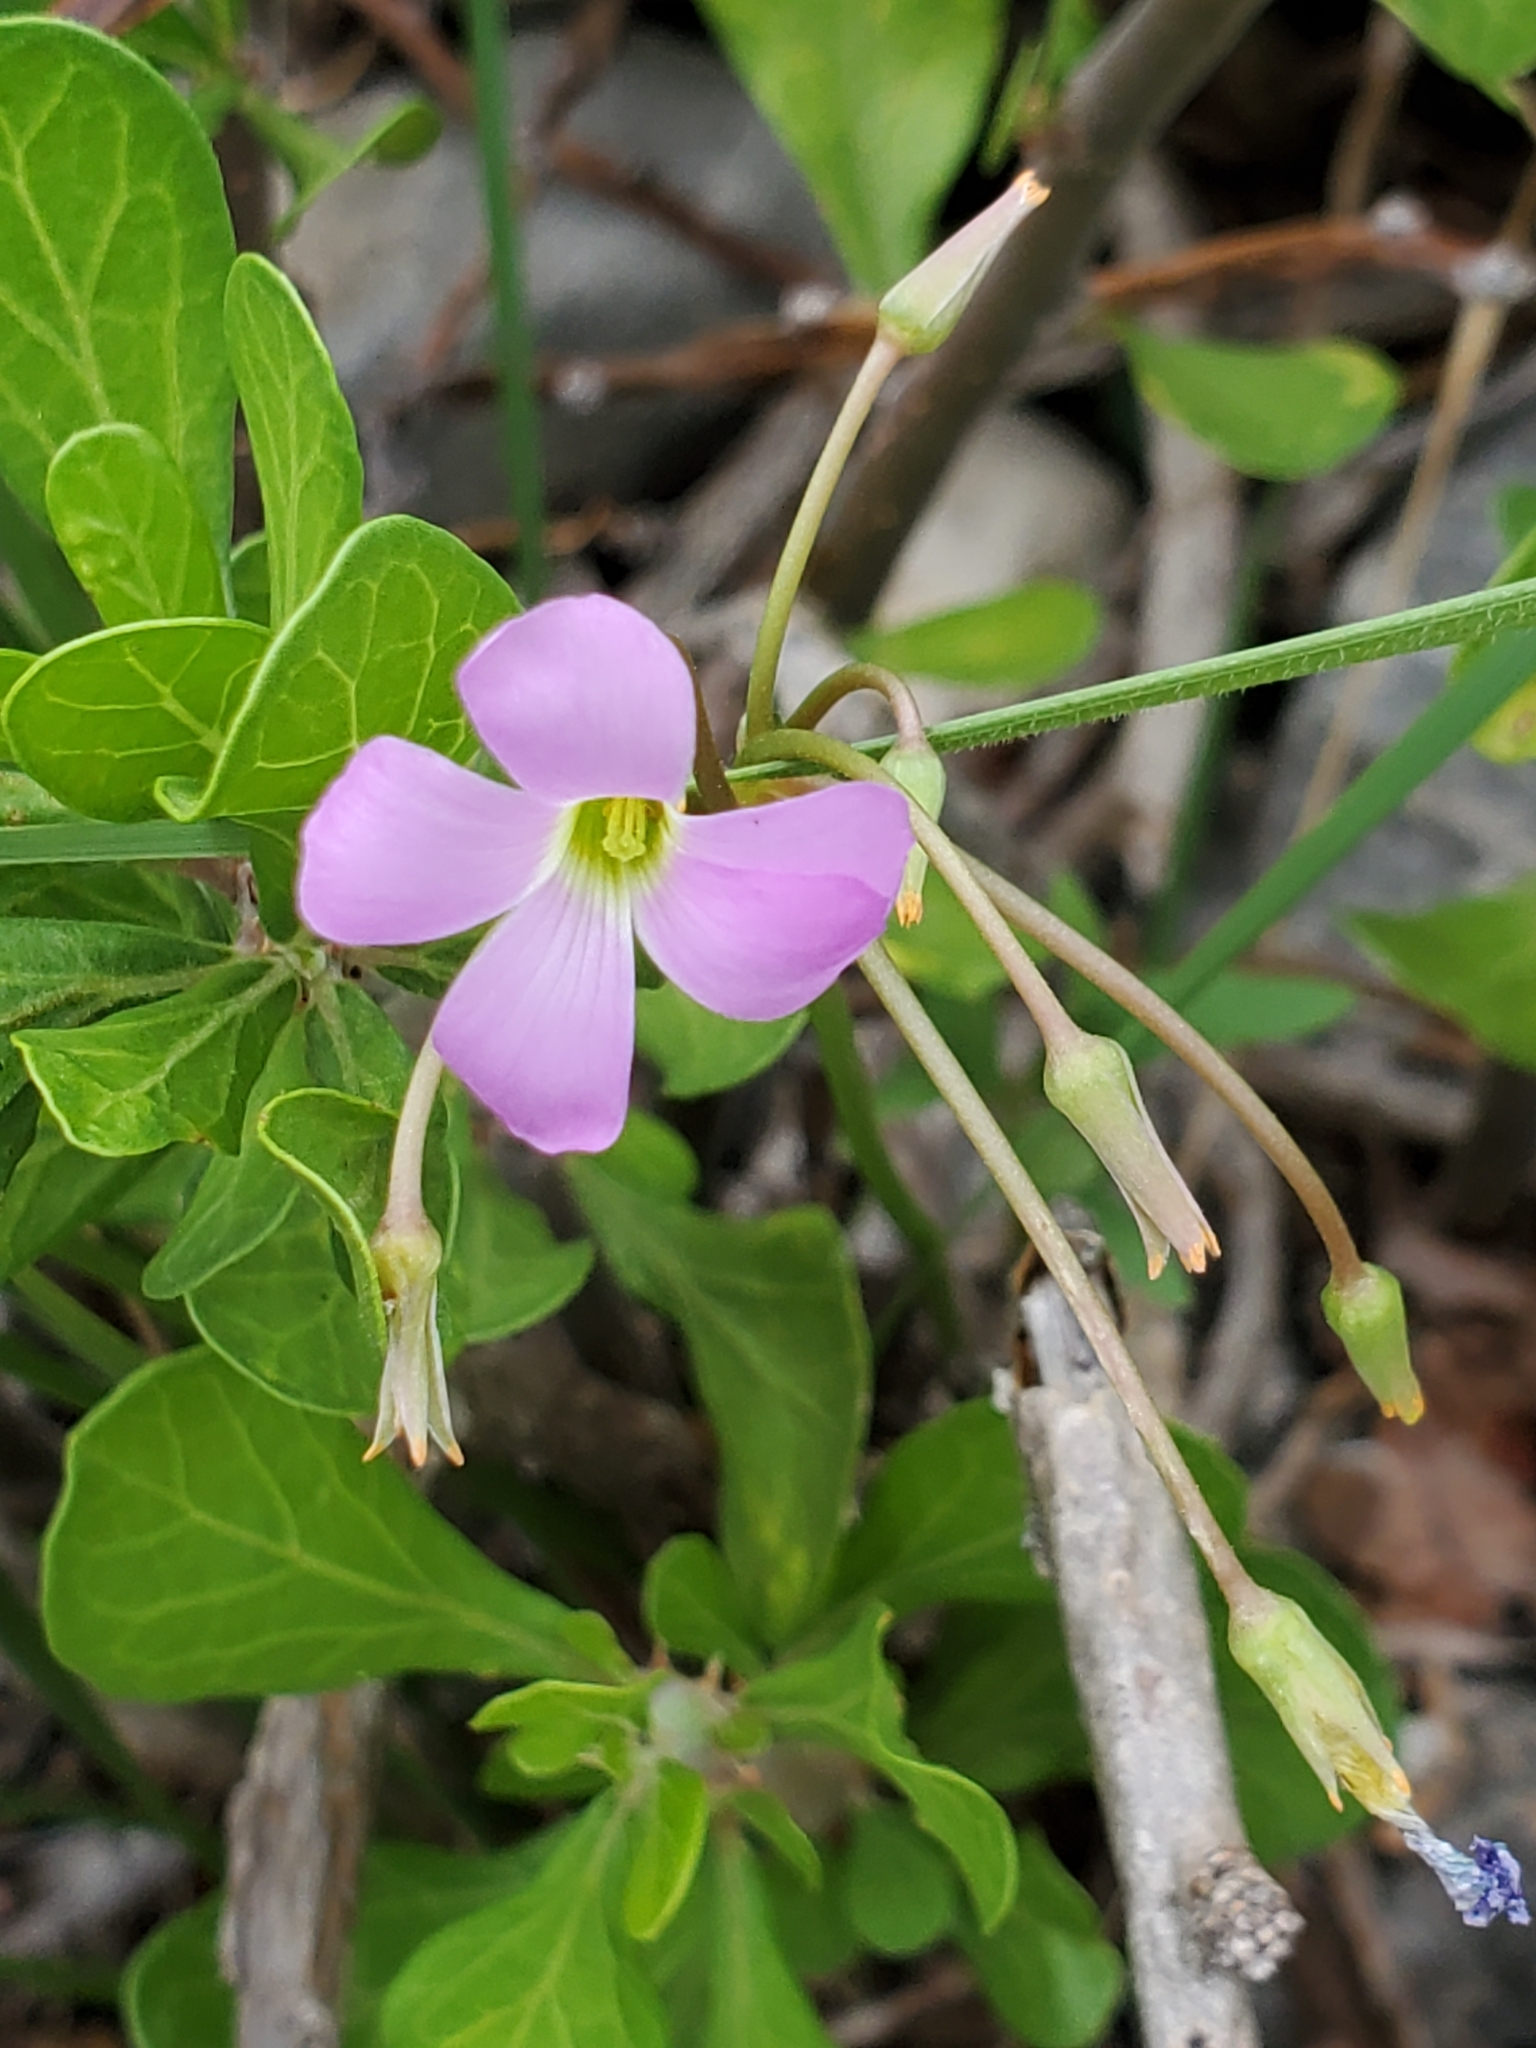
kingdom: Plantae
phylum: Tracheophyta
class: Magnoliopsida
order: Oxalidales
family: Oxalidaceae
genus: Oxalis
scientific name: Oxalis drummondii
